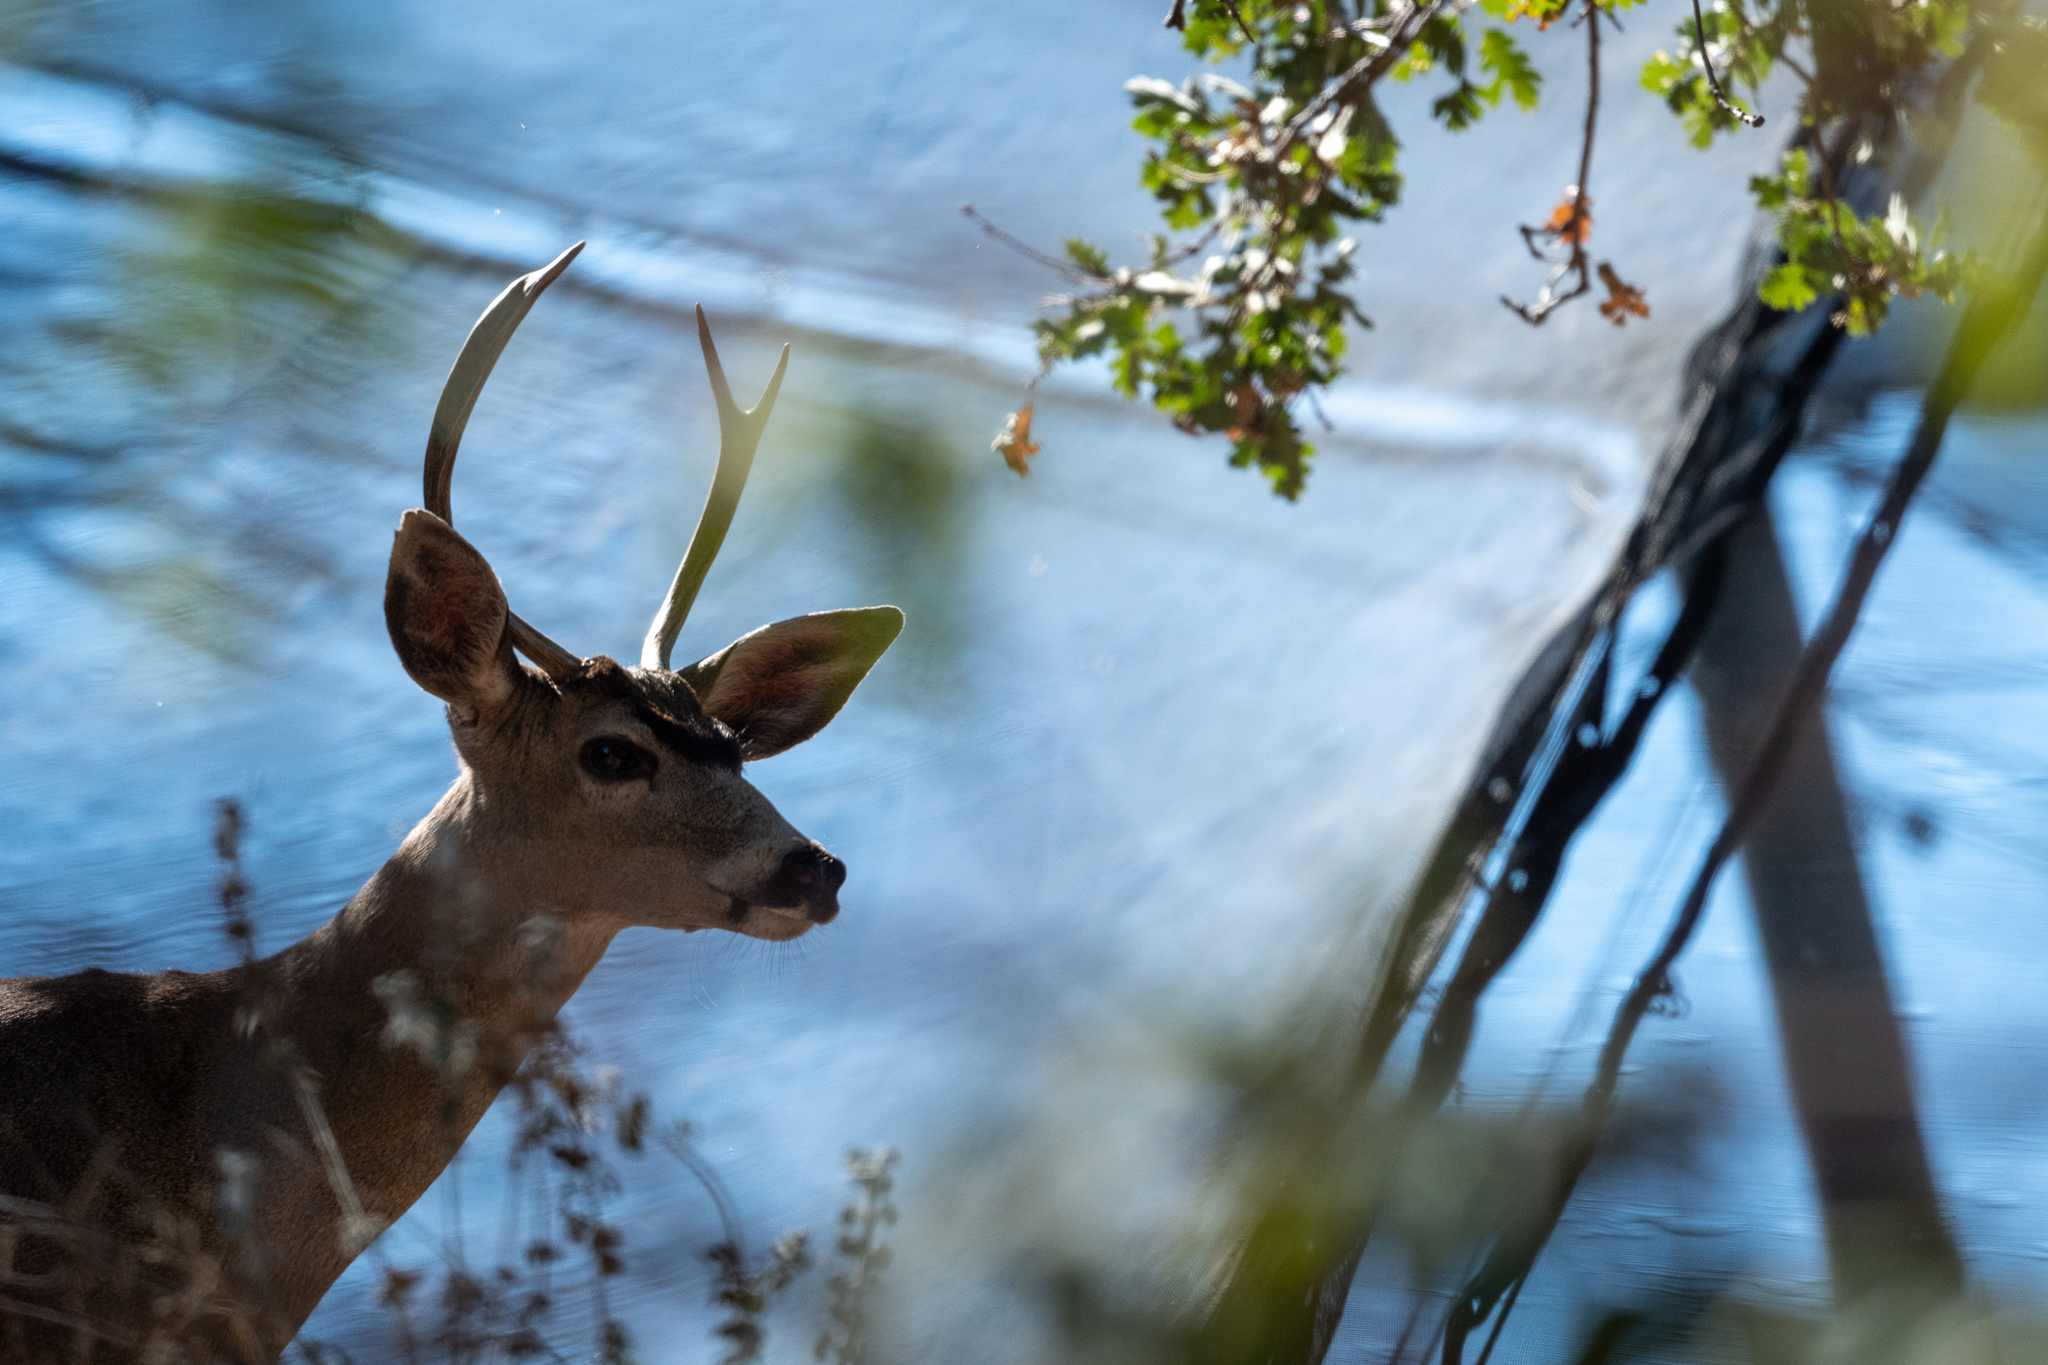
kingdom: Animalia
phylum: Chordata
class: Mammalia
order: Artiodactyla
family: Cervidae
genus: Odocoileus
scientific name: Odocoileus hemionus
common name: Mule deer
